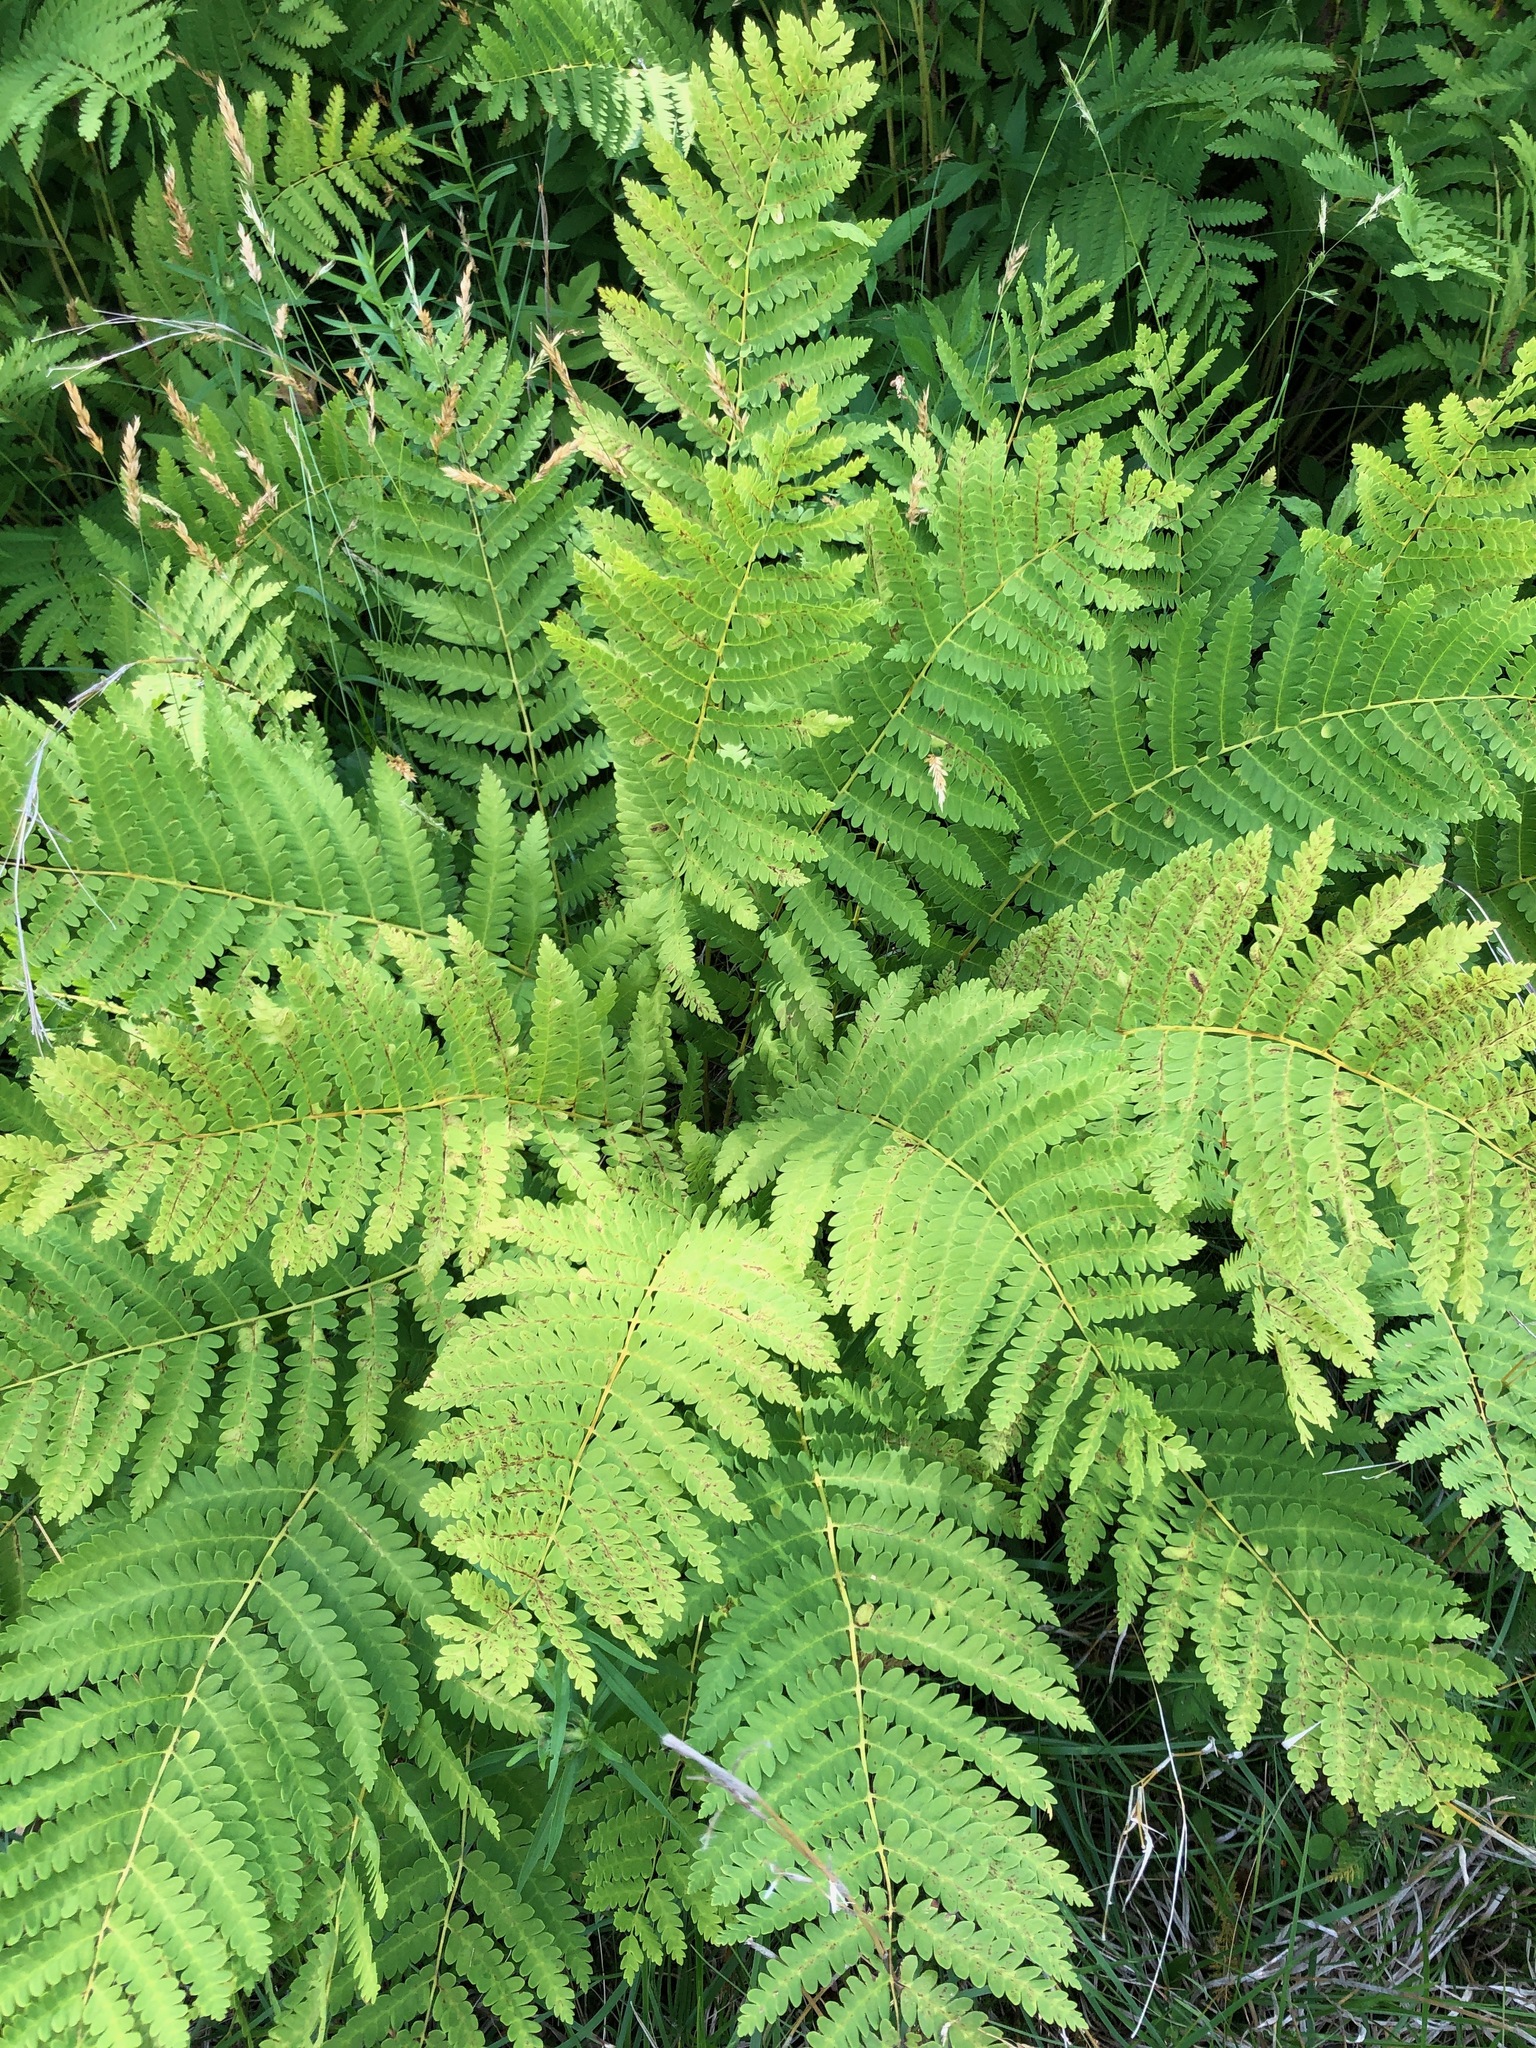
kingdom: Plantae
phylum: Tracheophyta
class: Polypodiopsida
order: Osmundales
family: Osmundaceae
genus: Claytosmunda
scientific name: Claytosmunda claytoniana
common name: Clayton's fern
